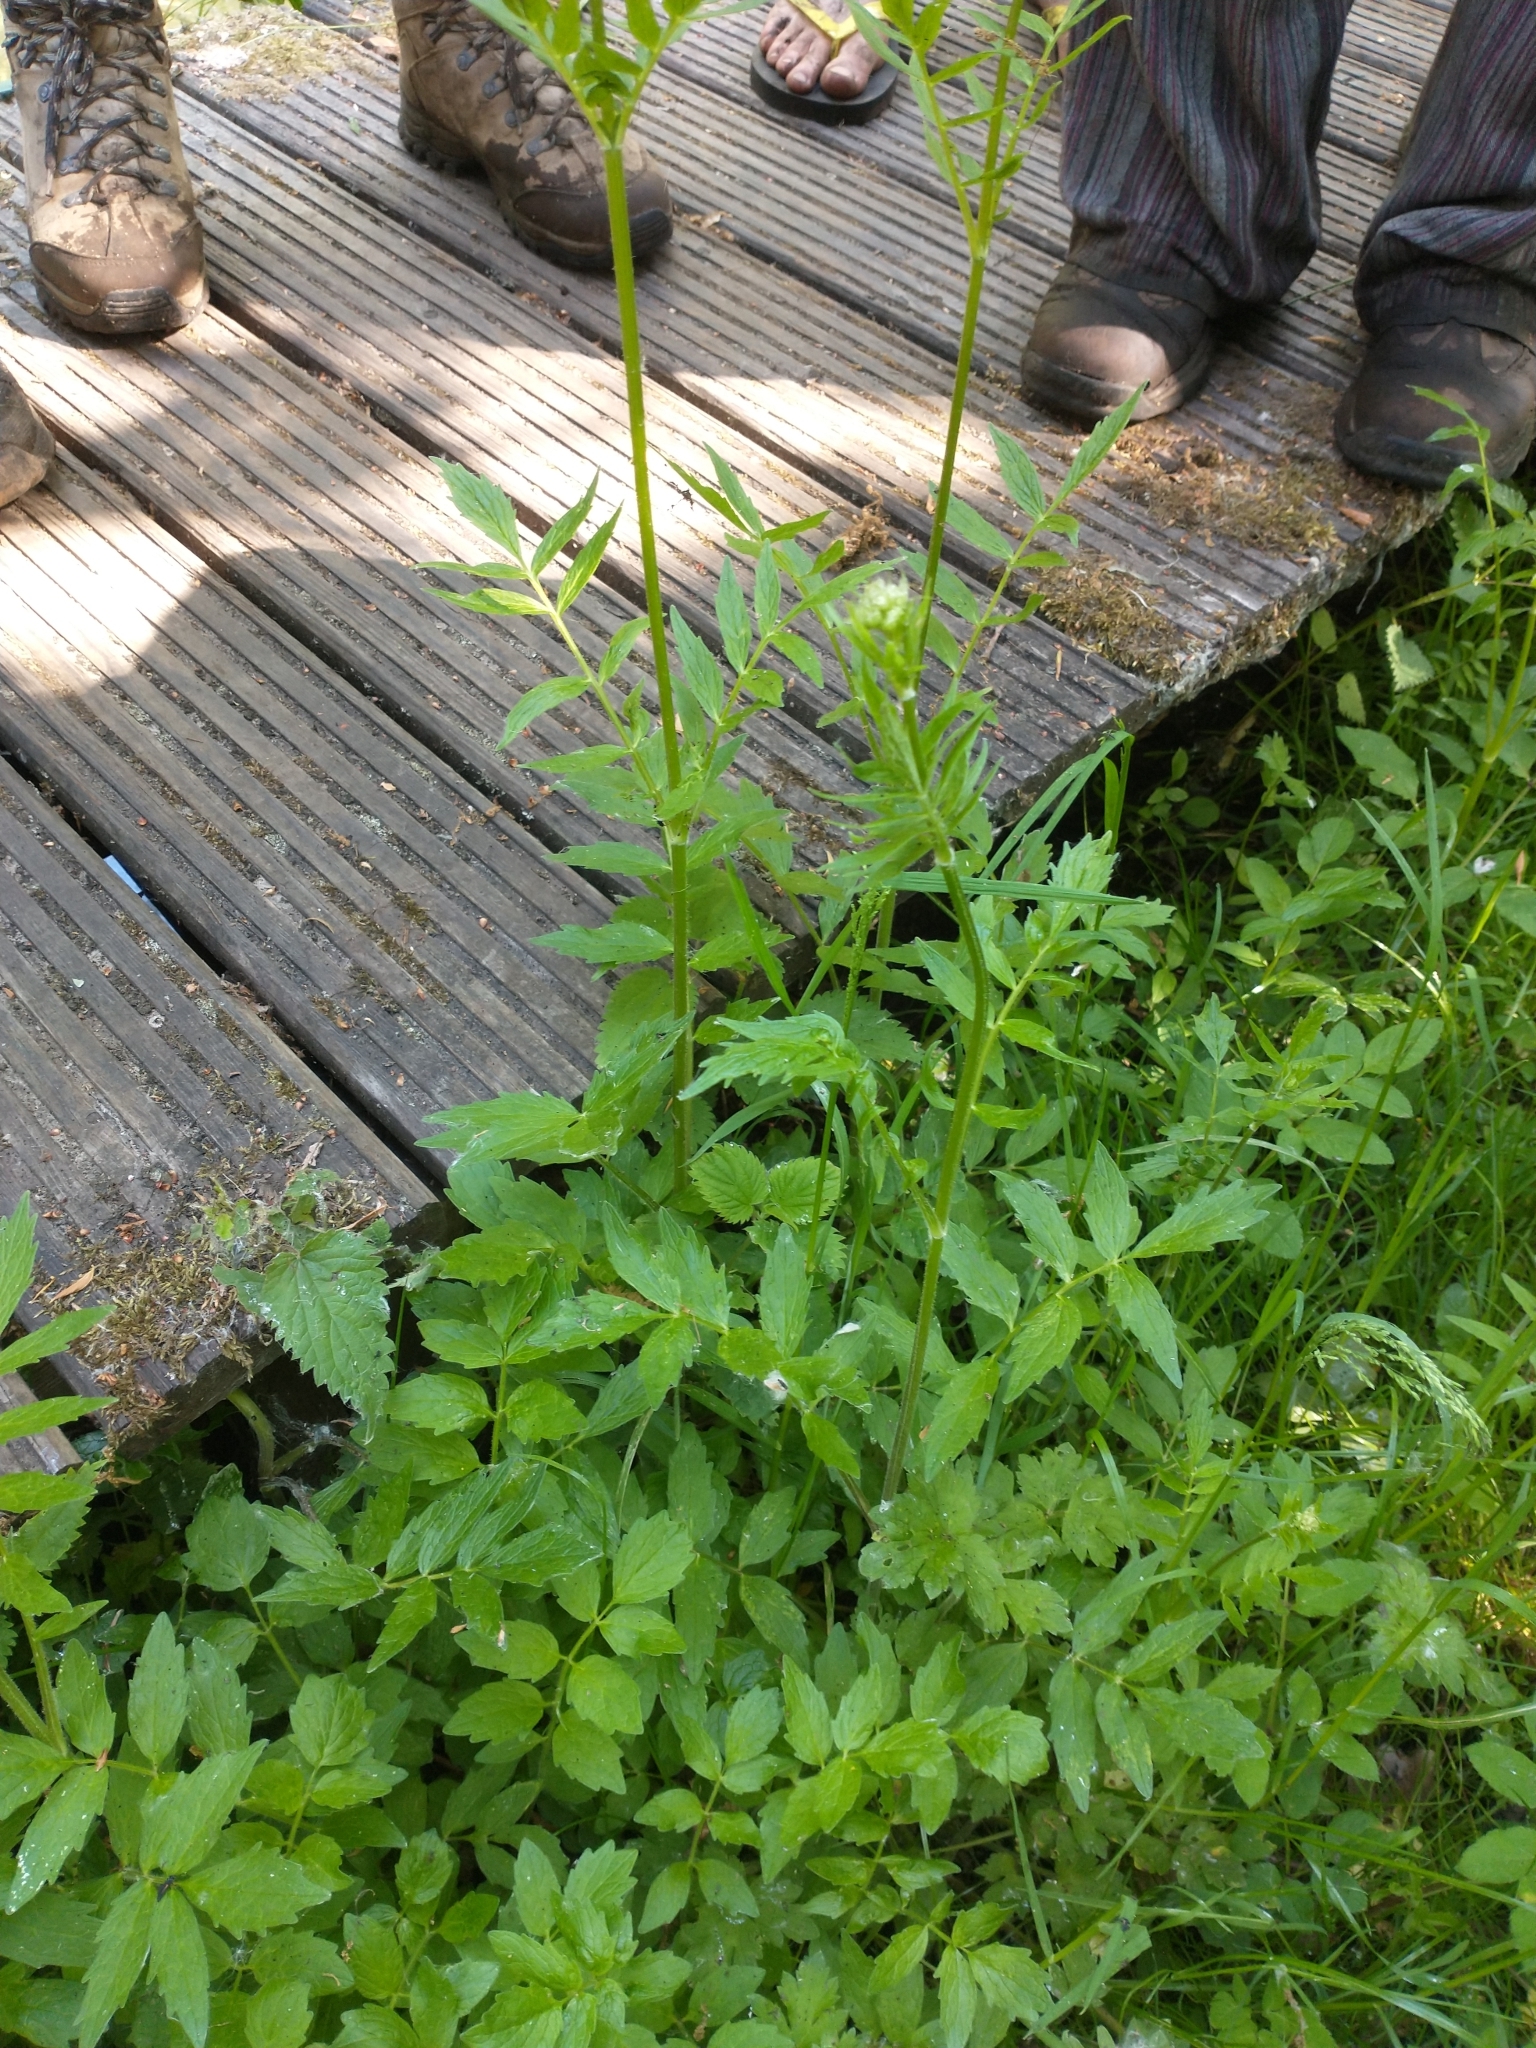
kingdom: Plantae
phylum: Tracheophyta
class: Magnoliopsida
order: Dipsacales
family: Caprifoliaceae
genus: Valeriana
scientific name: Valeriana officinalis
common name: Common valerian
